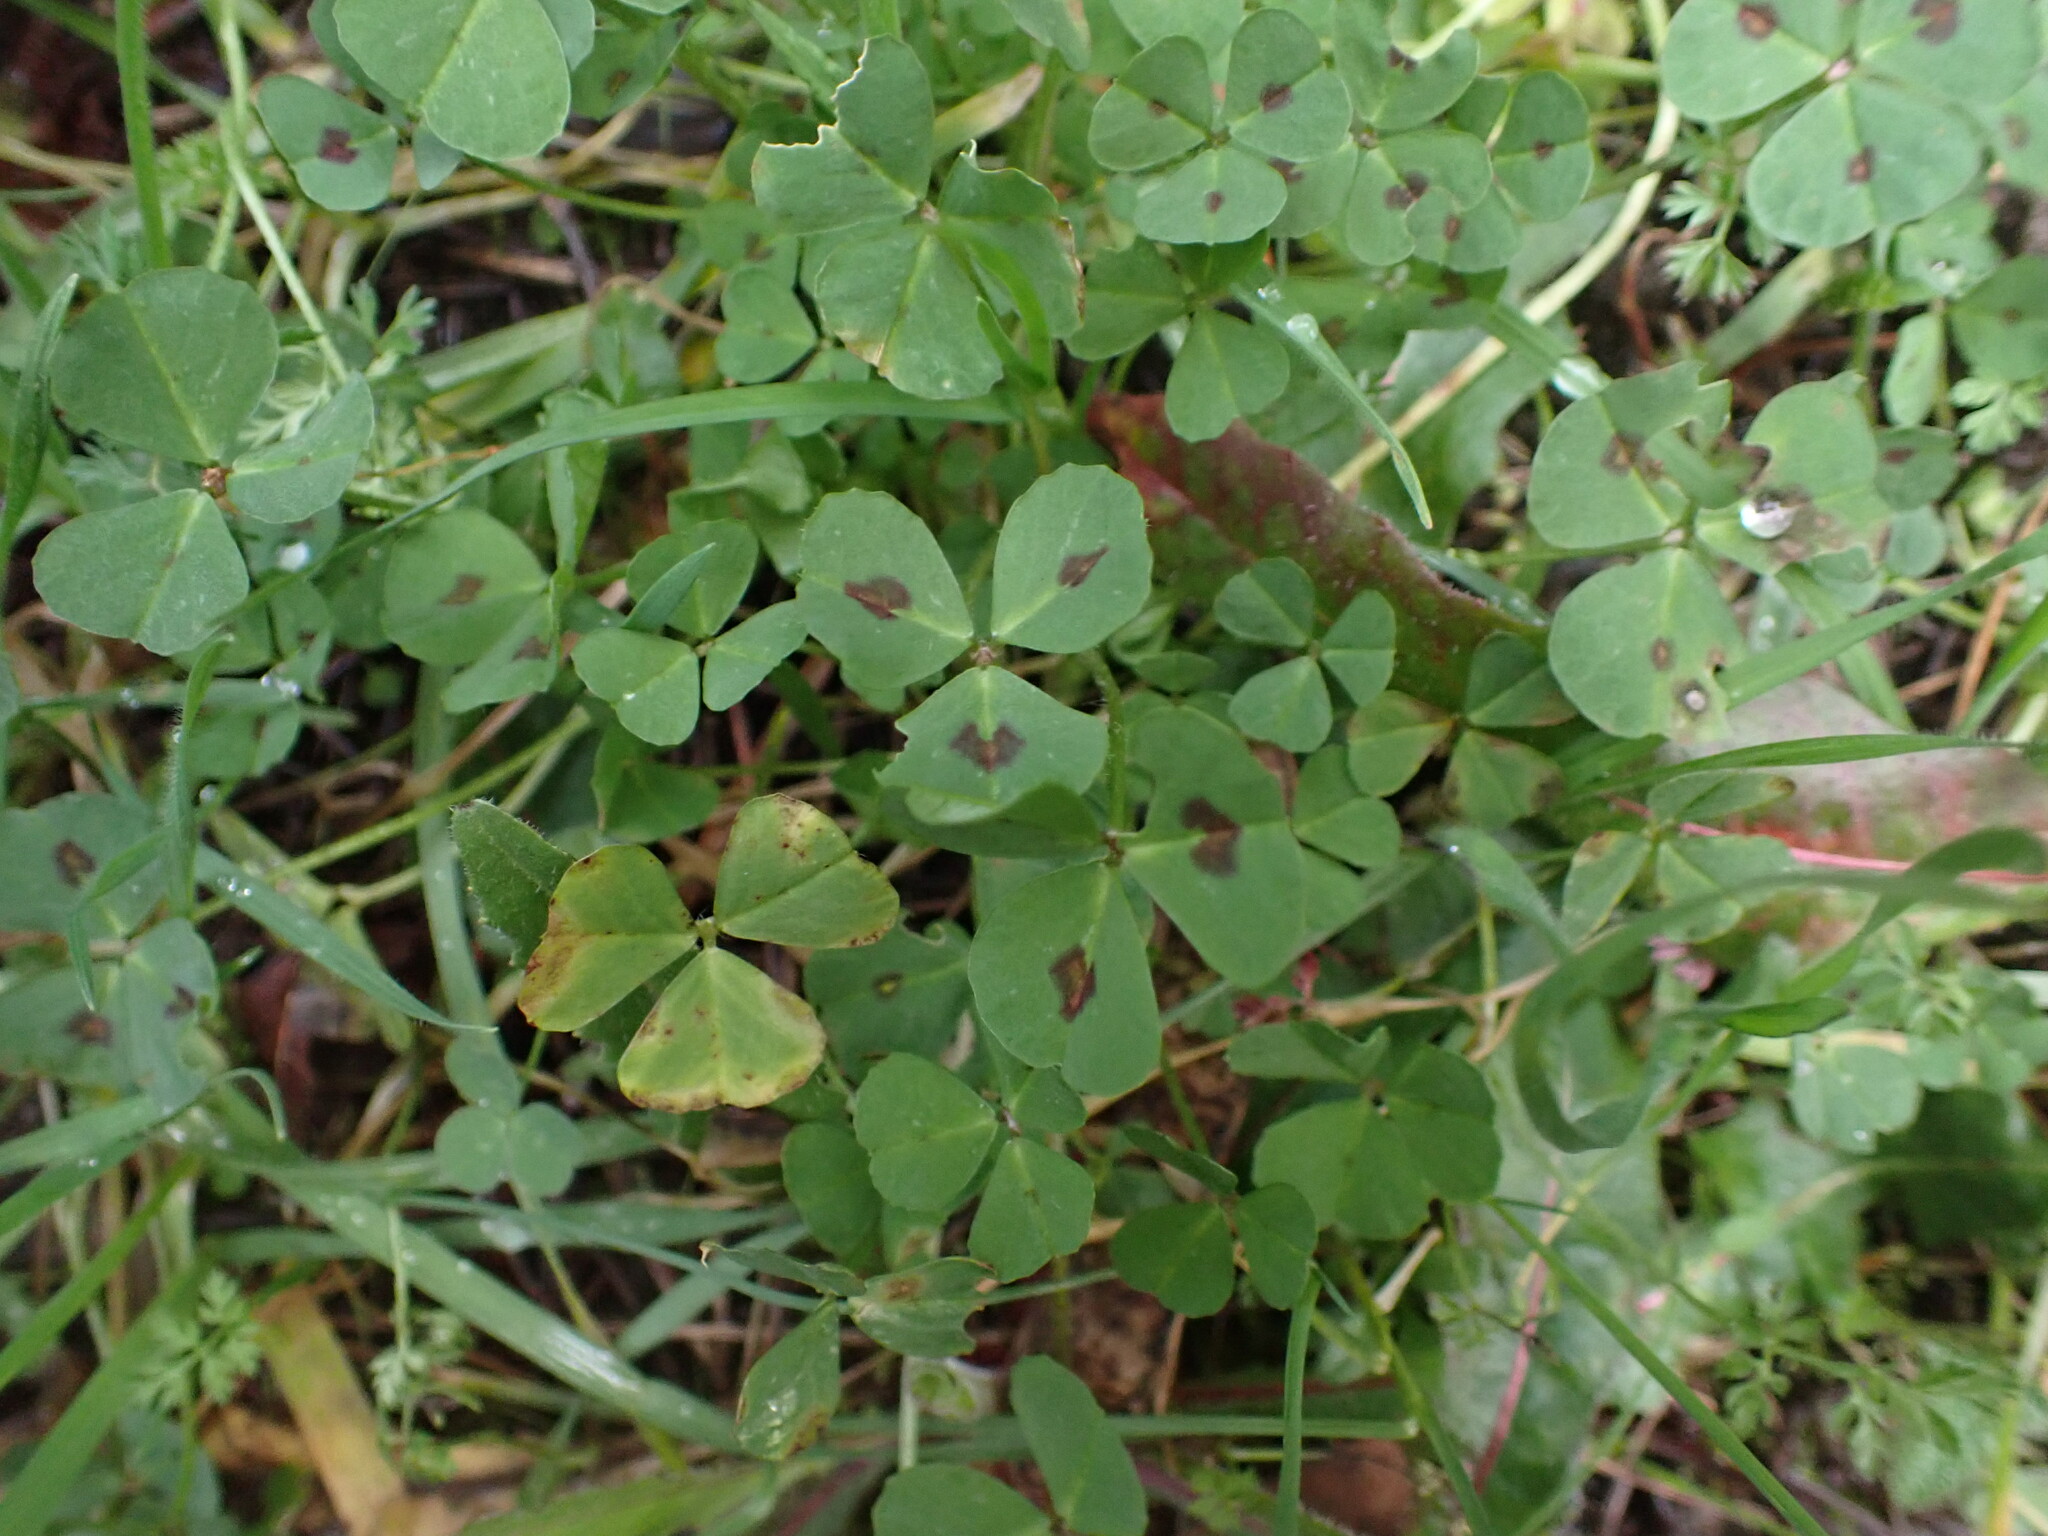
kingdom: Plantae
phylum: Tracheophyta
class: Magnoliopsida
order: Fabales
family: Fabaceae
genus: Medicago
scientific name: Medicago arabica
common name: Spotted medick
